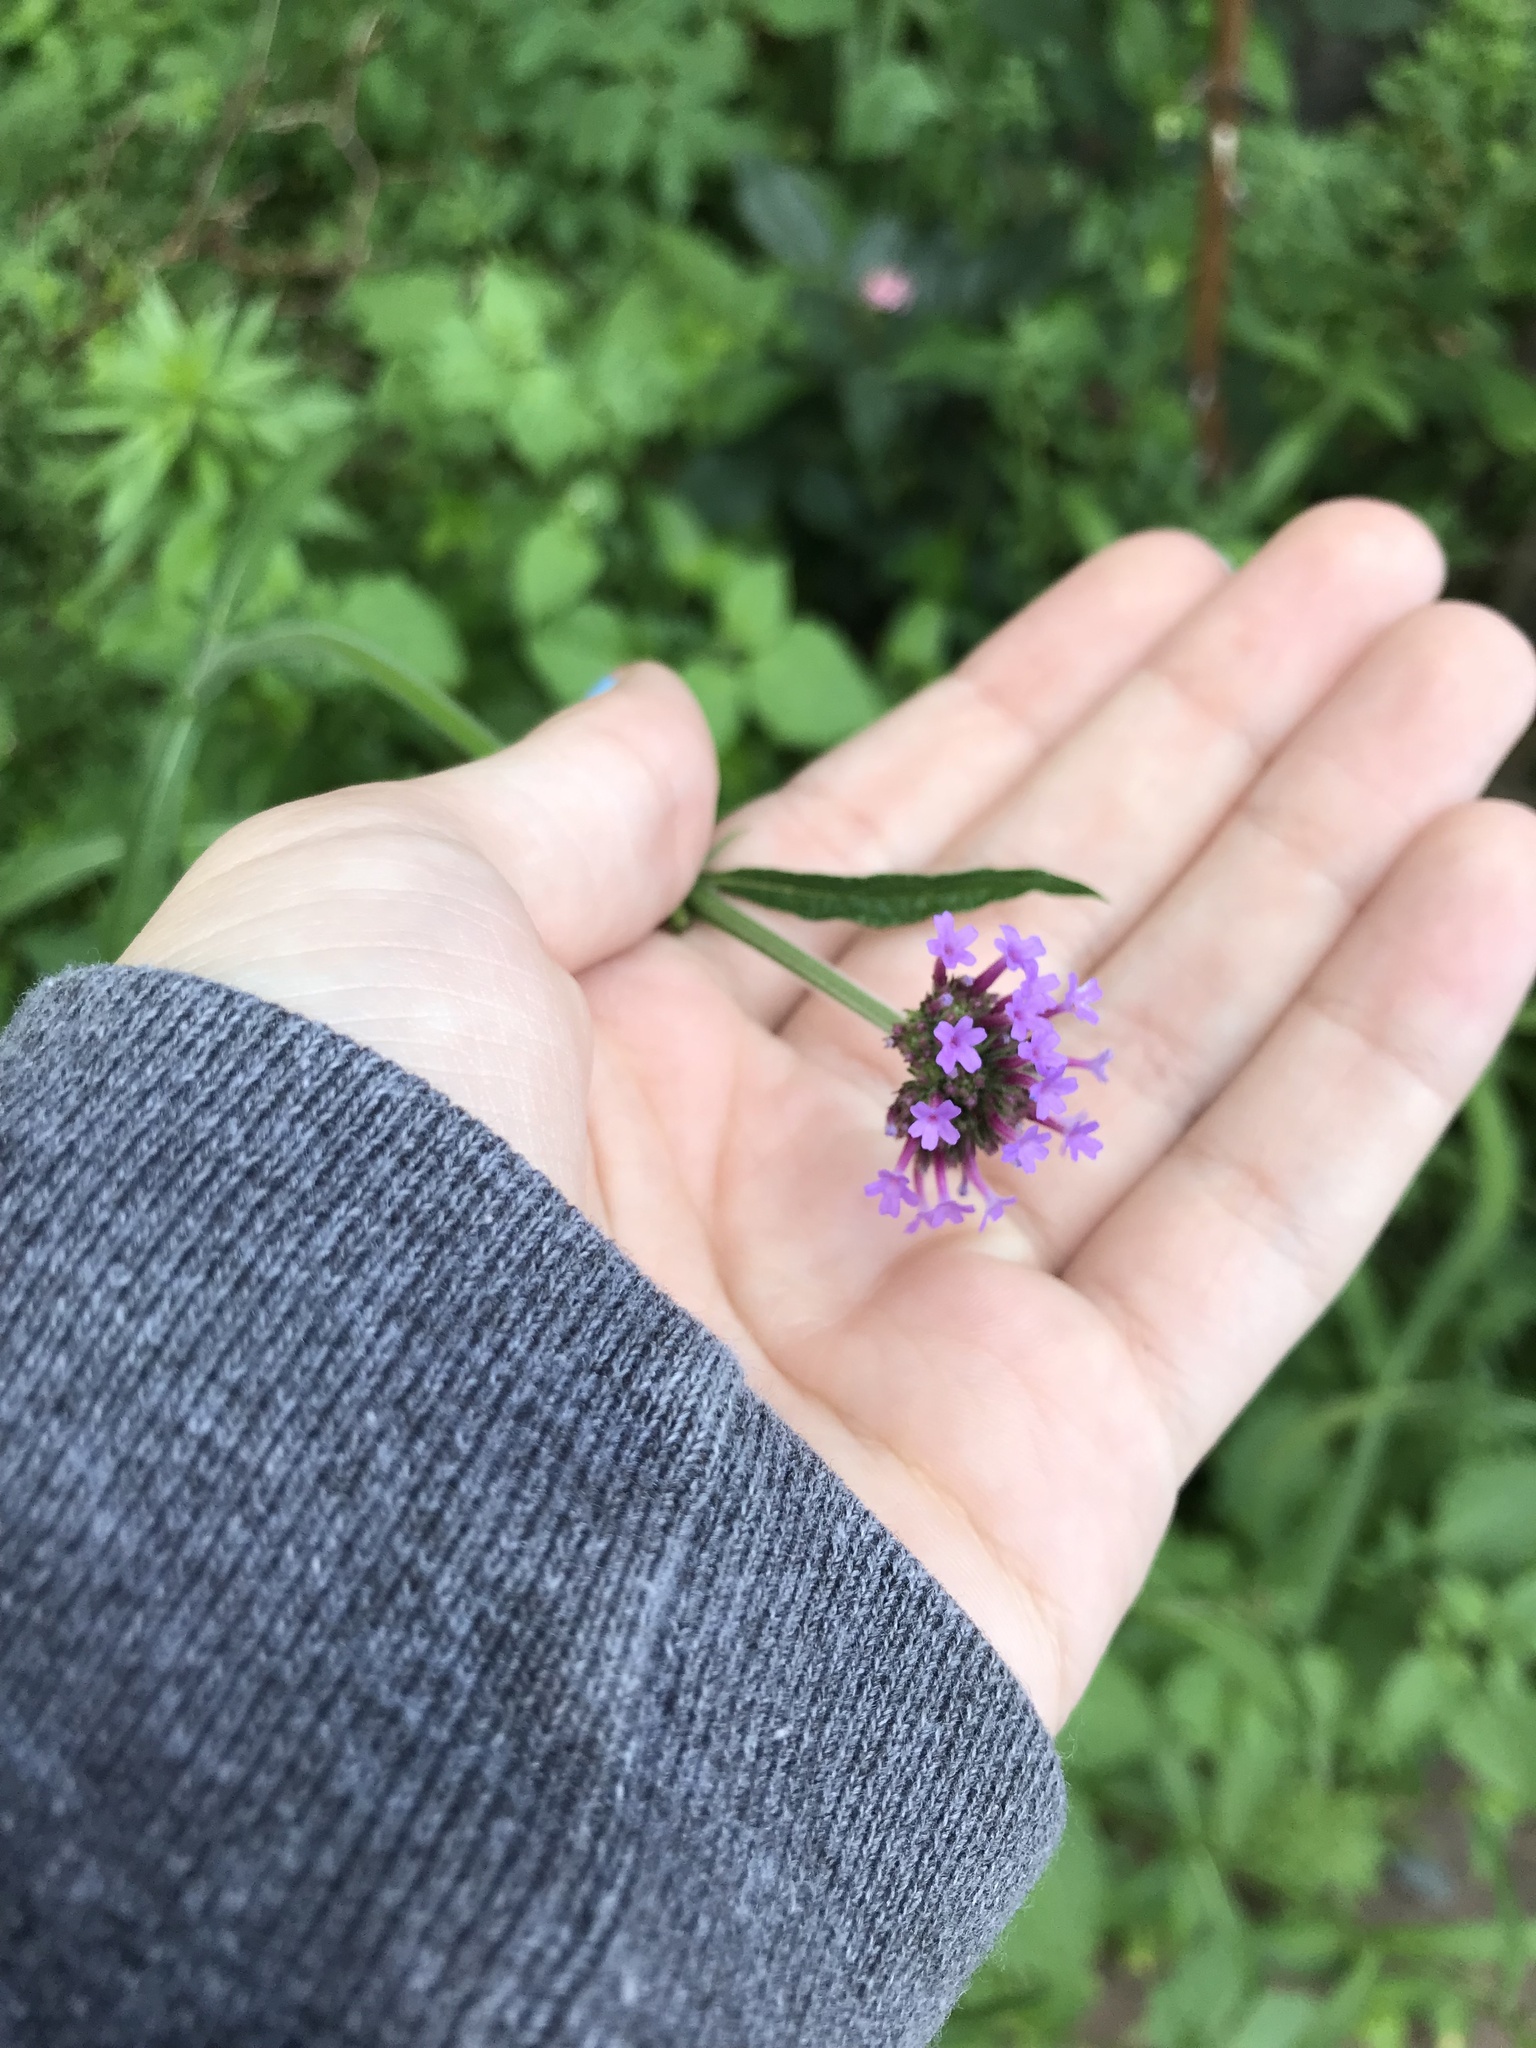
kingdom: Plantae
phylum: Tracheophyta
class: Magnoliopsida
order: Lamiales
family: Verbenaceae
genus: Verbena
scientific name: Verbena bonariensis
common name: Purpletop vervain
